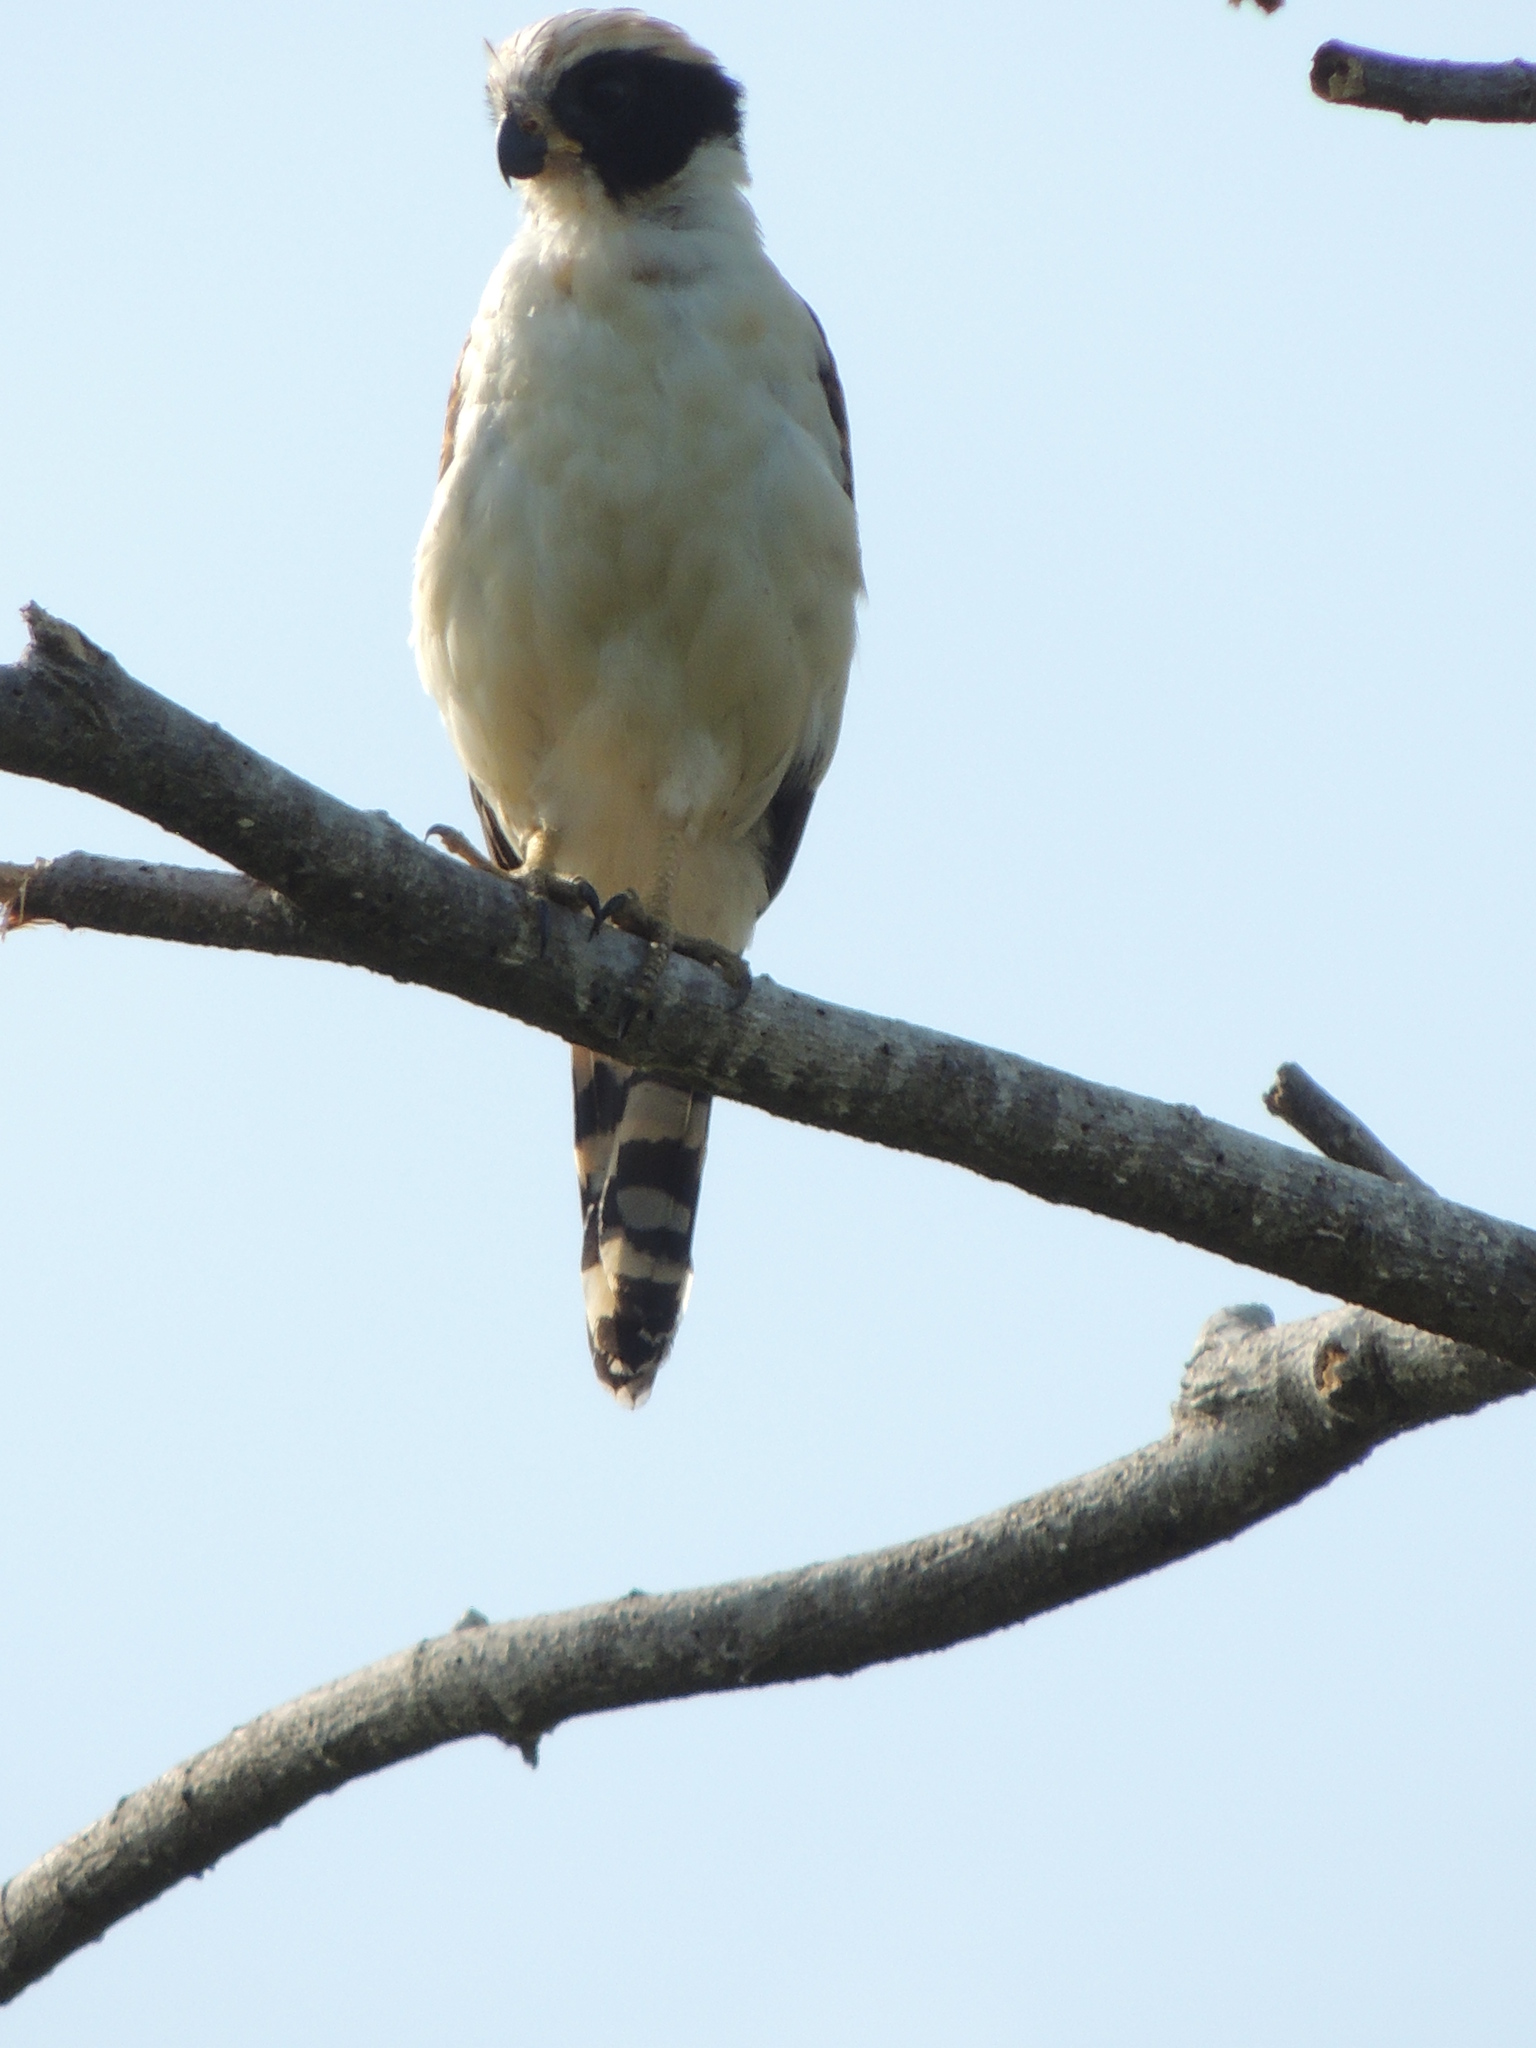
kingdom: Animalia
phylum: Chordata
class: Aves
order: Falconiformes
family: Falconidae
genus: Herpetotheres
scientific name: Herpetotheres cachinnans
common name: Laughing falcon
